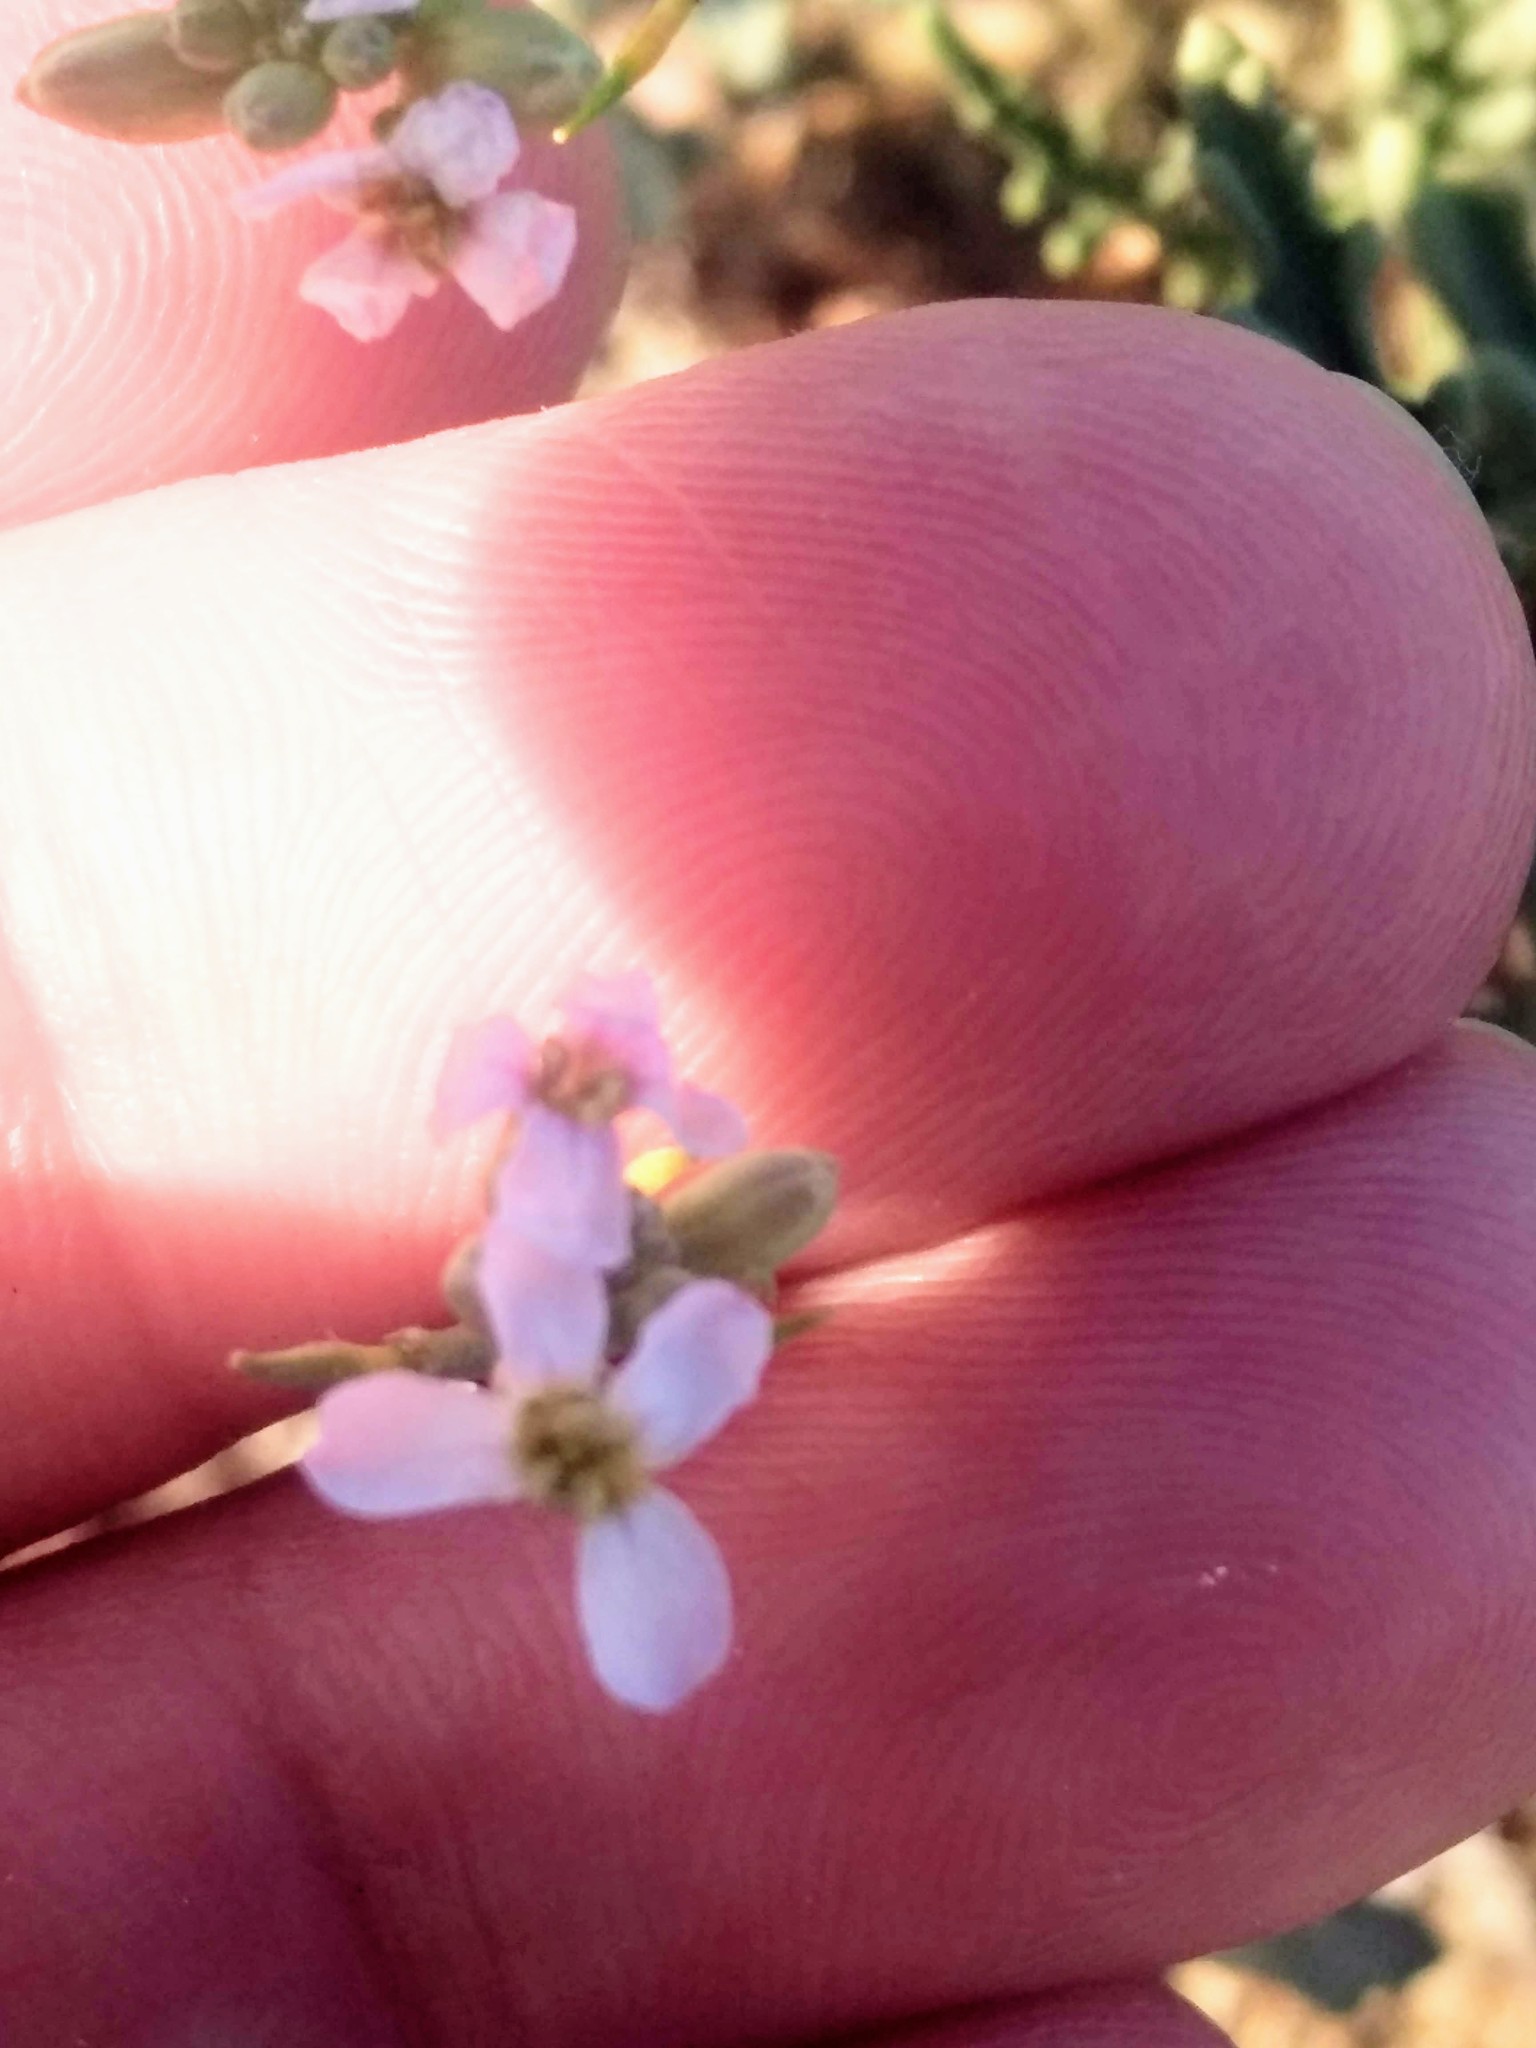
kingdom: Plantae
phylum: Tracheophyta
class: Magnoliopsida
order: Brassicales
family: Brassicaceae
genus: Cakile
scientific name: Cakile maritima
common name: Sea rocket
